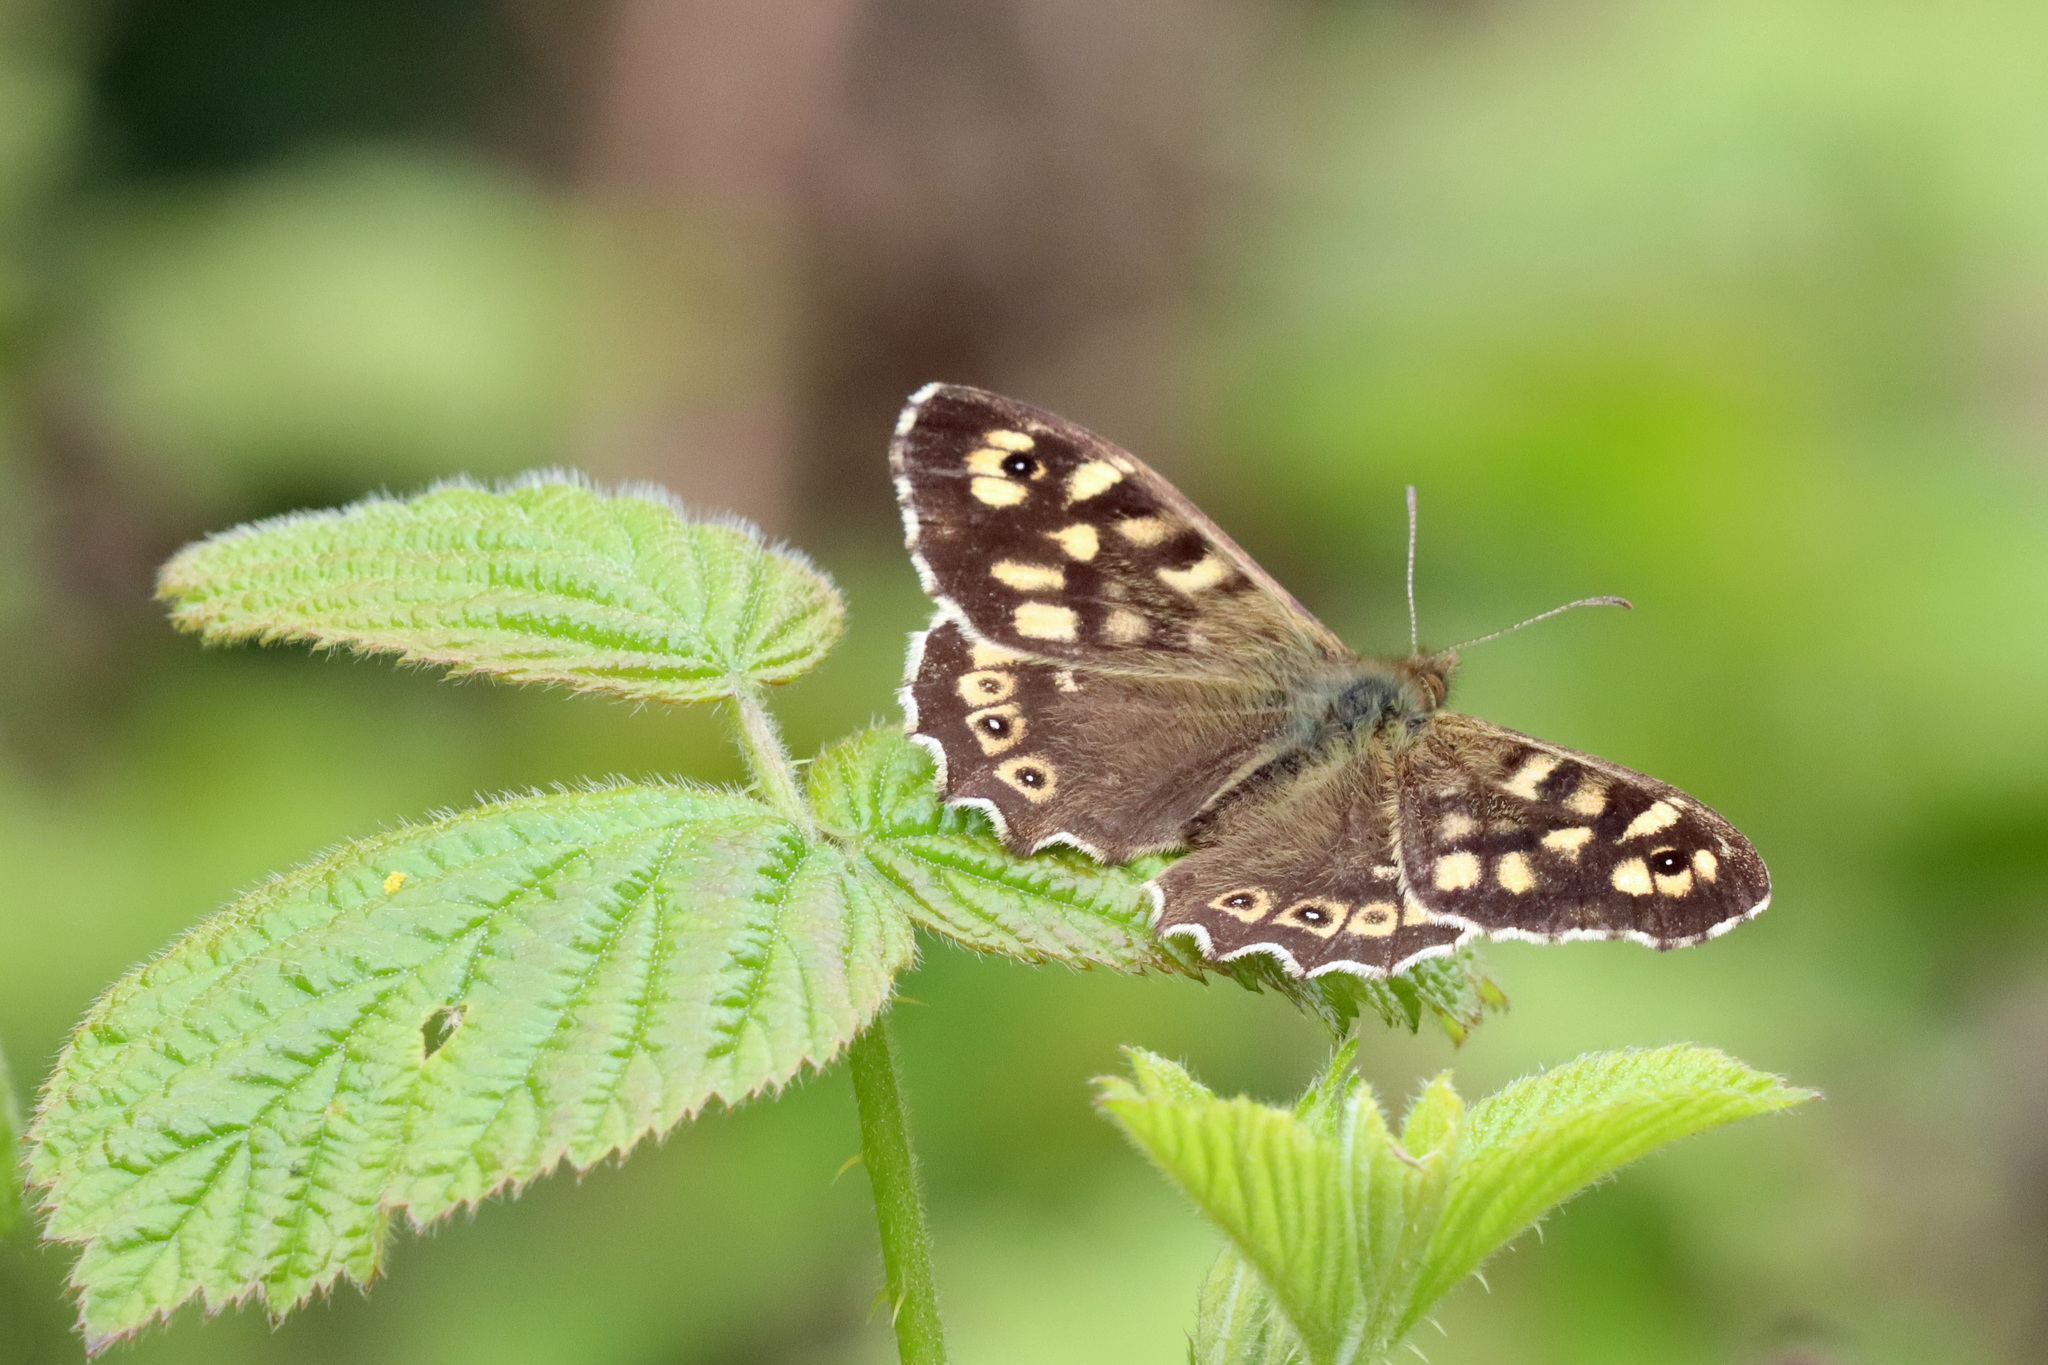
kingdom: Animalia
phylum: Arthropoda
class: Insecta
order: Lepidoptera
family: Nymphalidae
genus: Pararge
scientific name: Pararge aegeria
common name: Speckled wood
